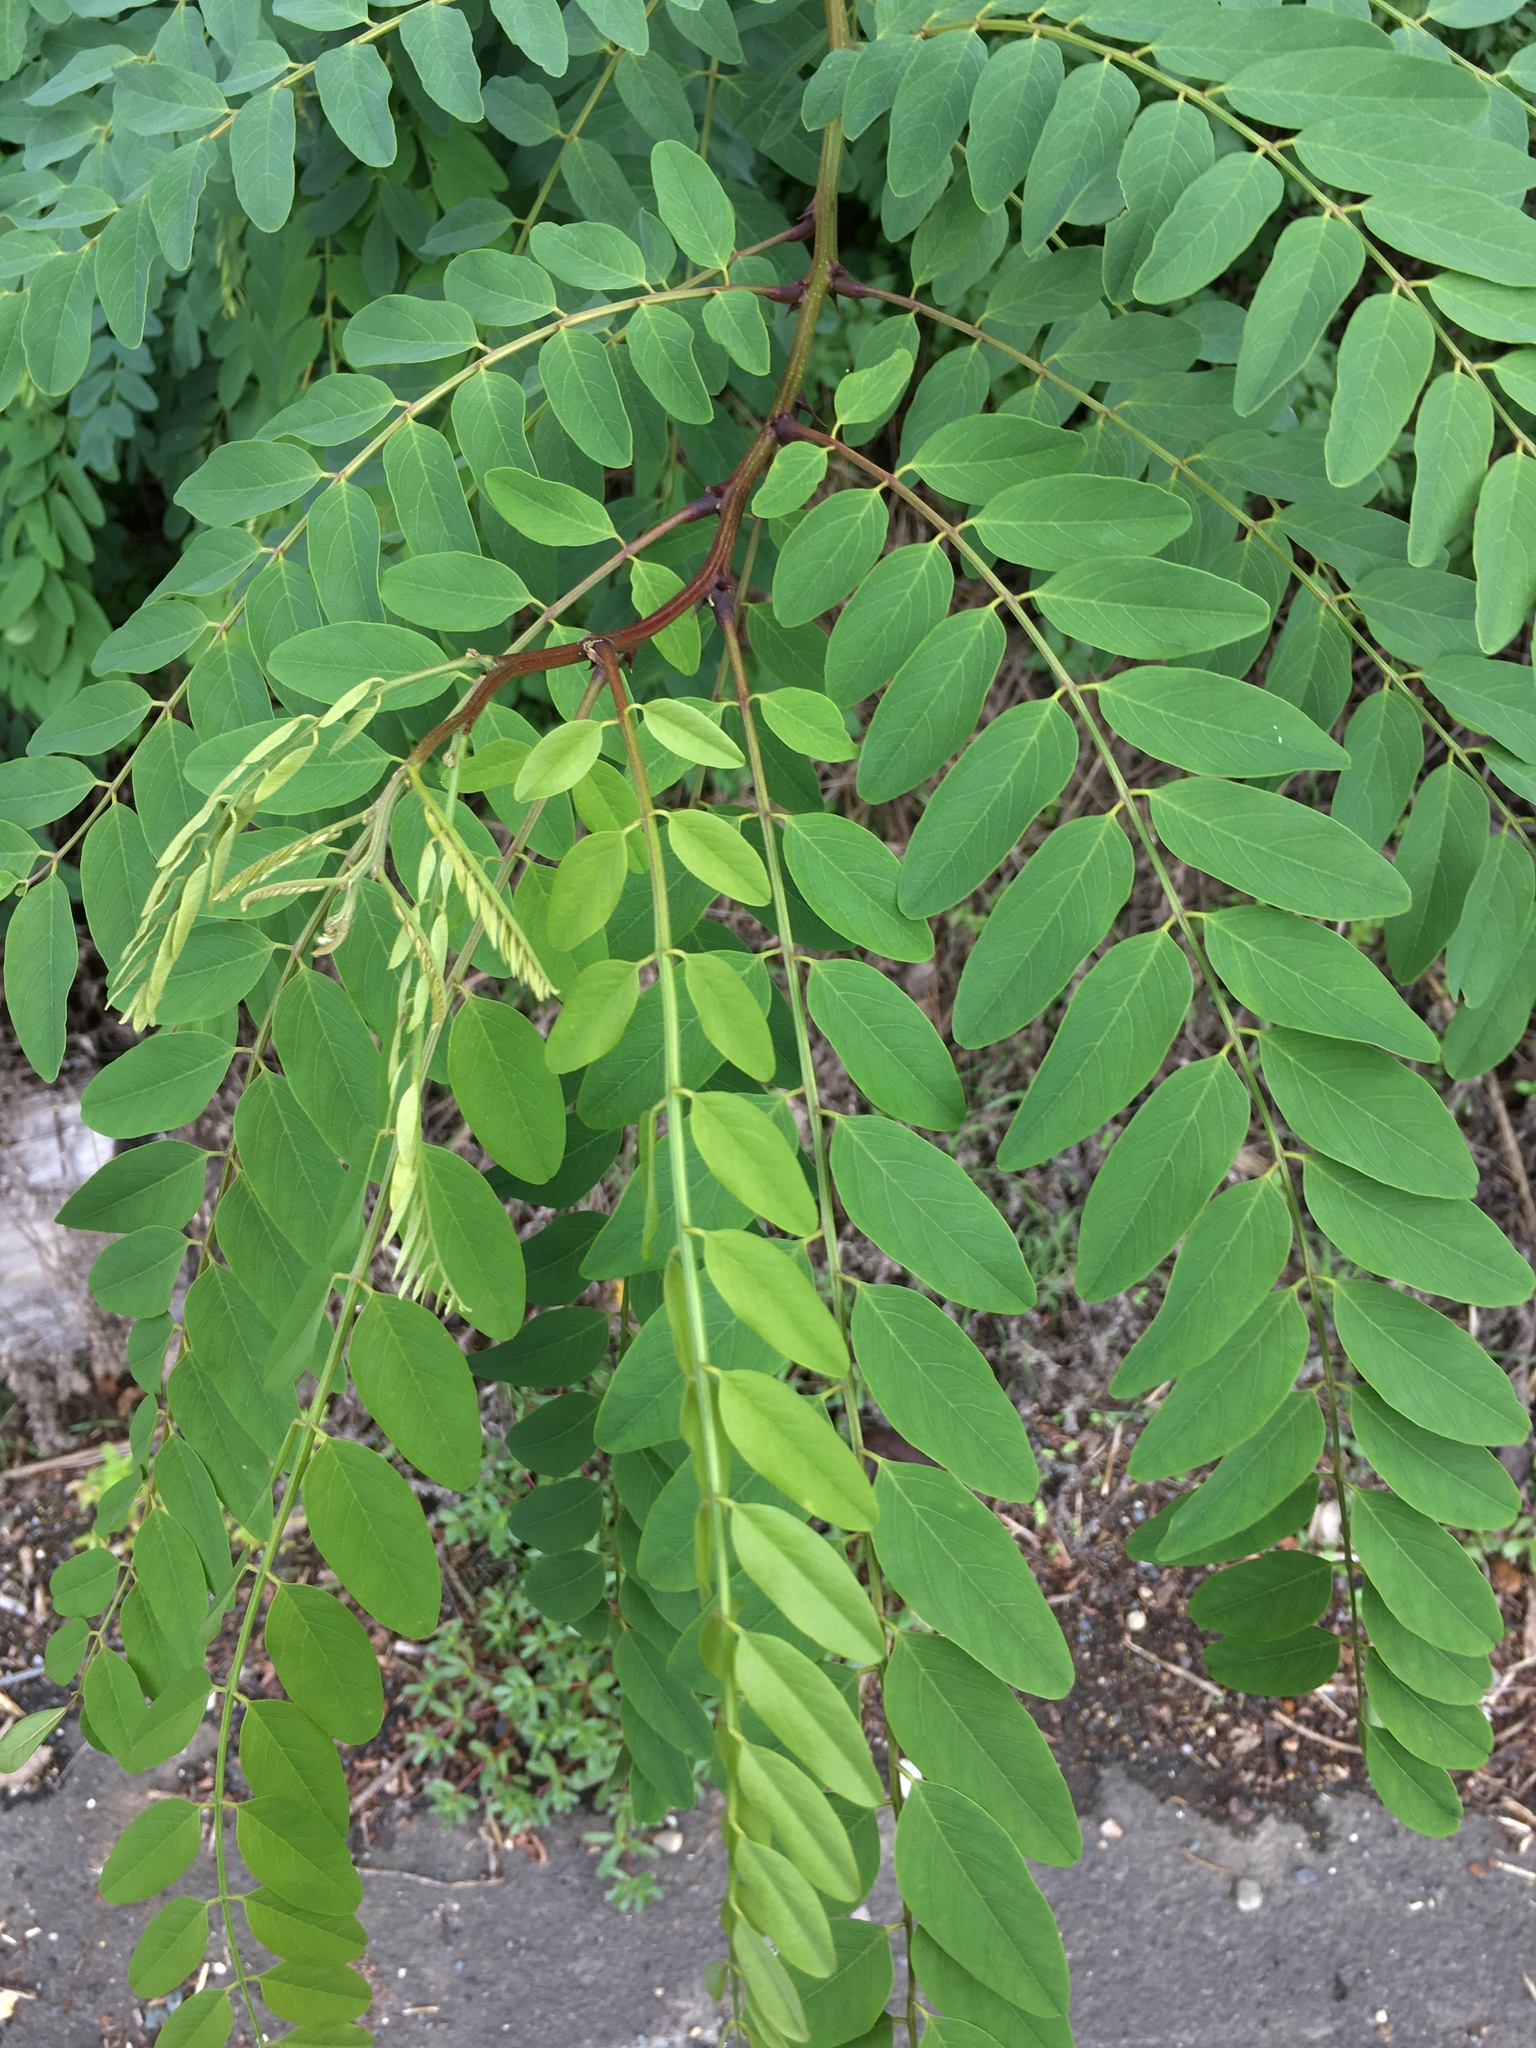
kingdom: Plantae
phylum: Tracheophyta
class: Magnoliopsida
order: Fabales
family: Fabaceae
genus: Robinia
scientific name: Robinia pseudoacacia
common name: Black locust
